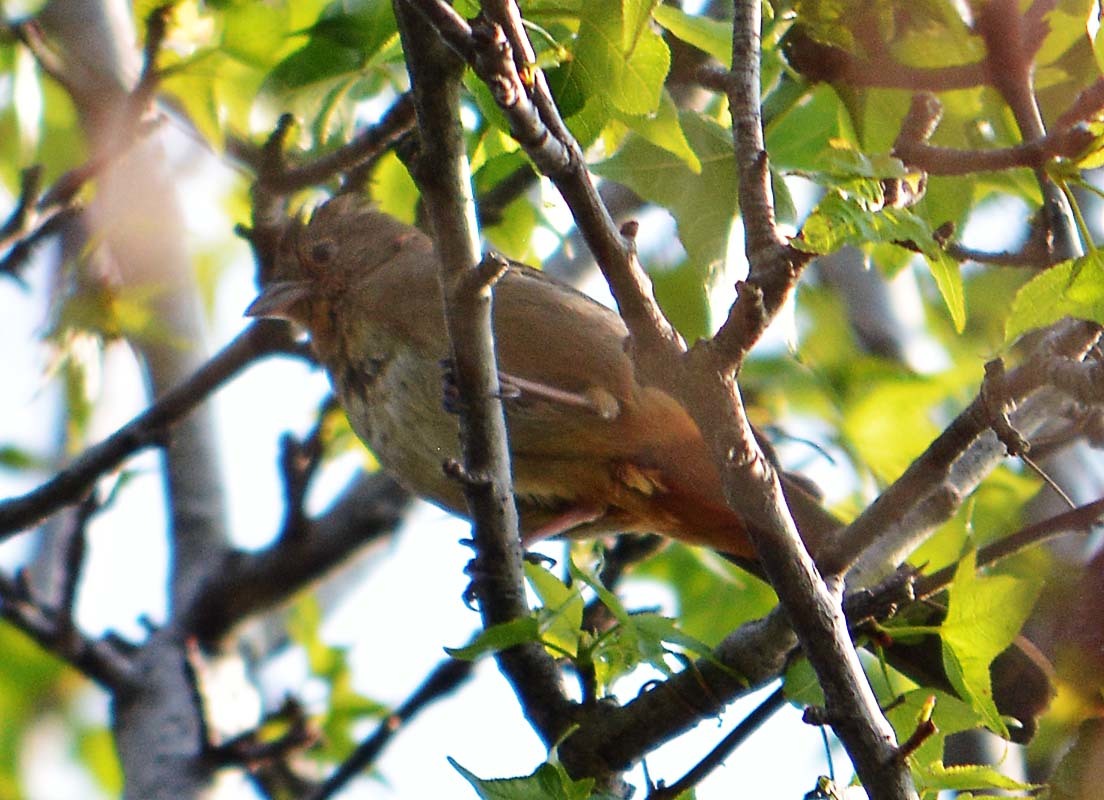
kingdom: Animalia
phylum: Chordata
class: Aves
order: Passeriformes
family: Passerellidae
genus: Melozone
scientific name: Melozone fusca
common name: Canyon towhee
